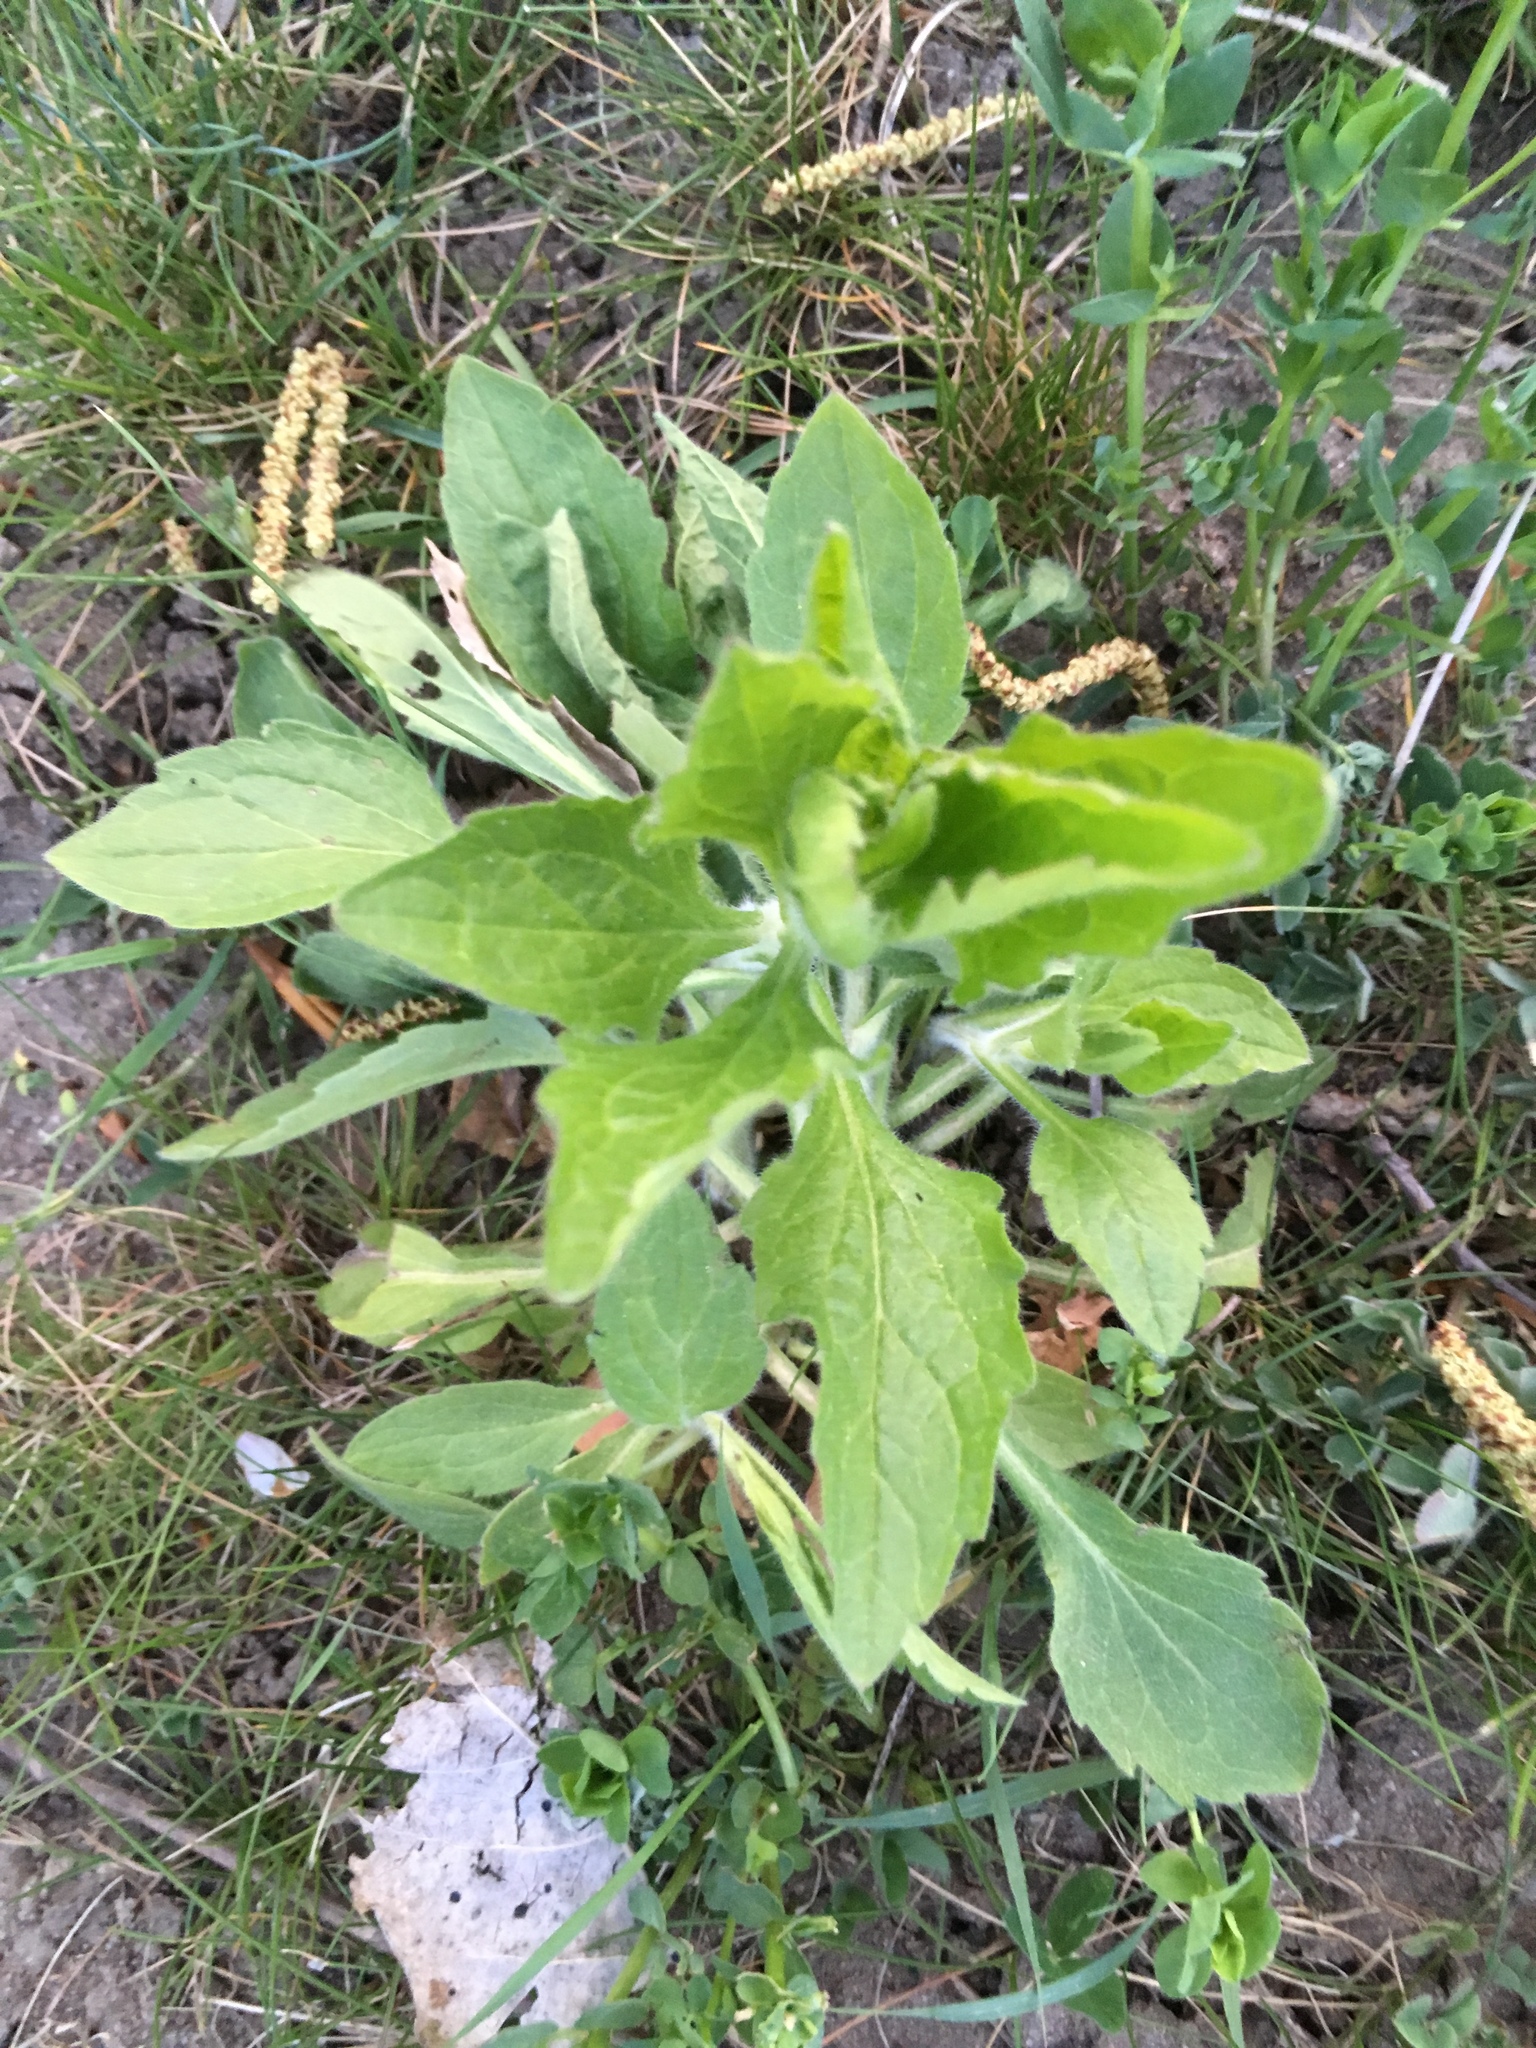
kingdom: Plantae
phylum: Tracheophyta
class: Magnoliopsida
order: Asterales
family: Asteraceae
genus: Erigeron
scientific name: Erigeron annuus
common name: Tall fleabane
